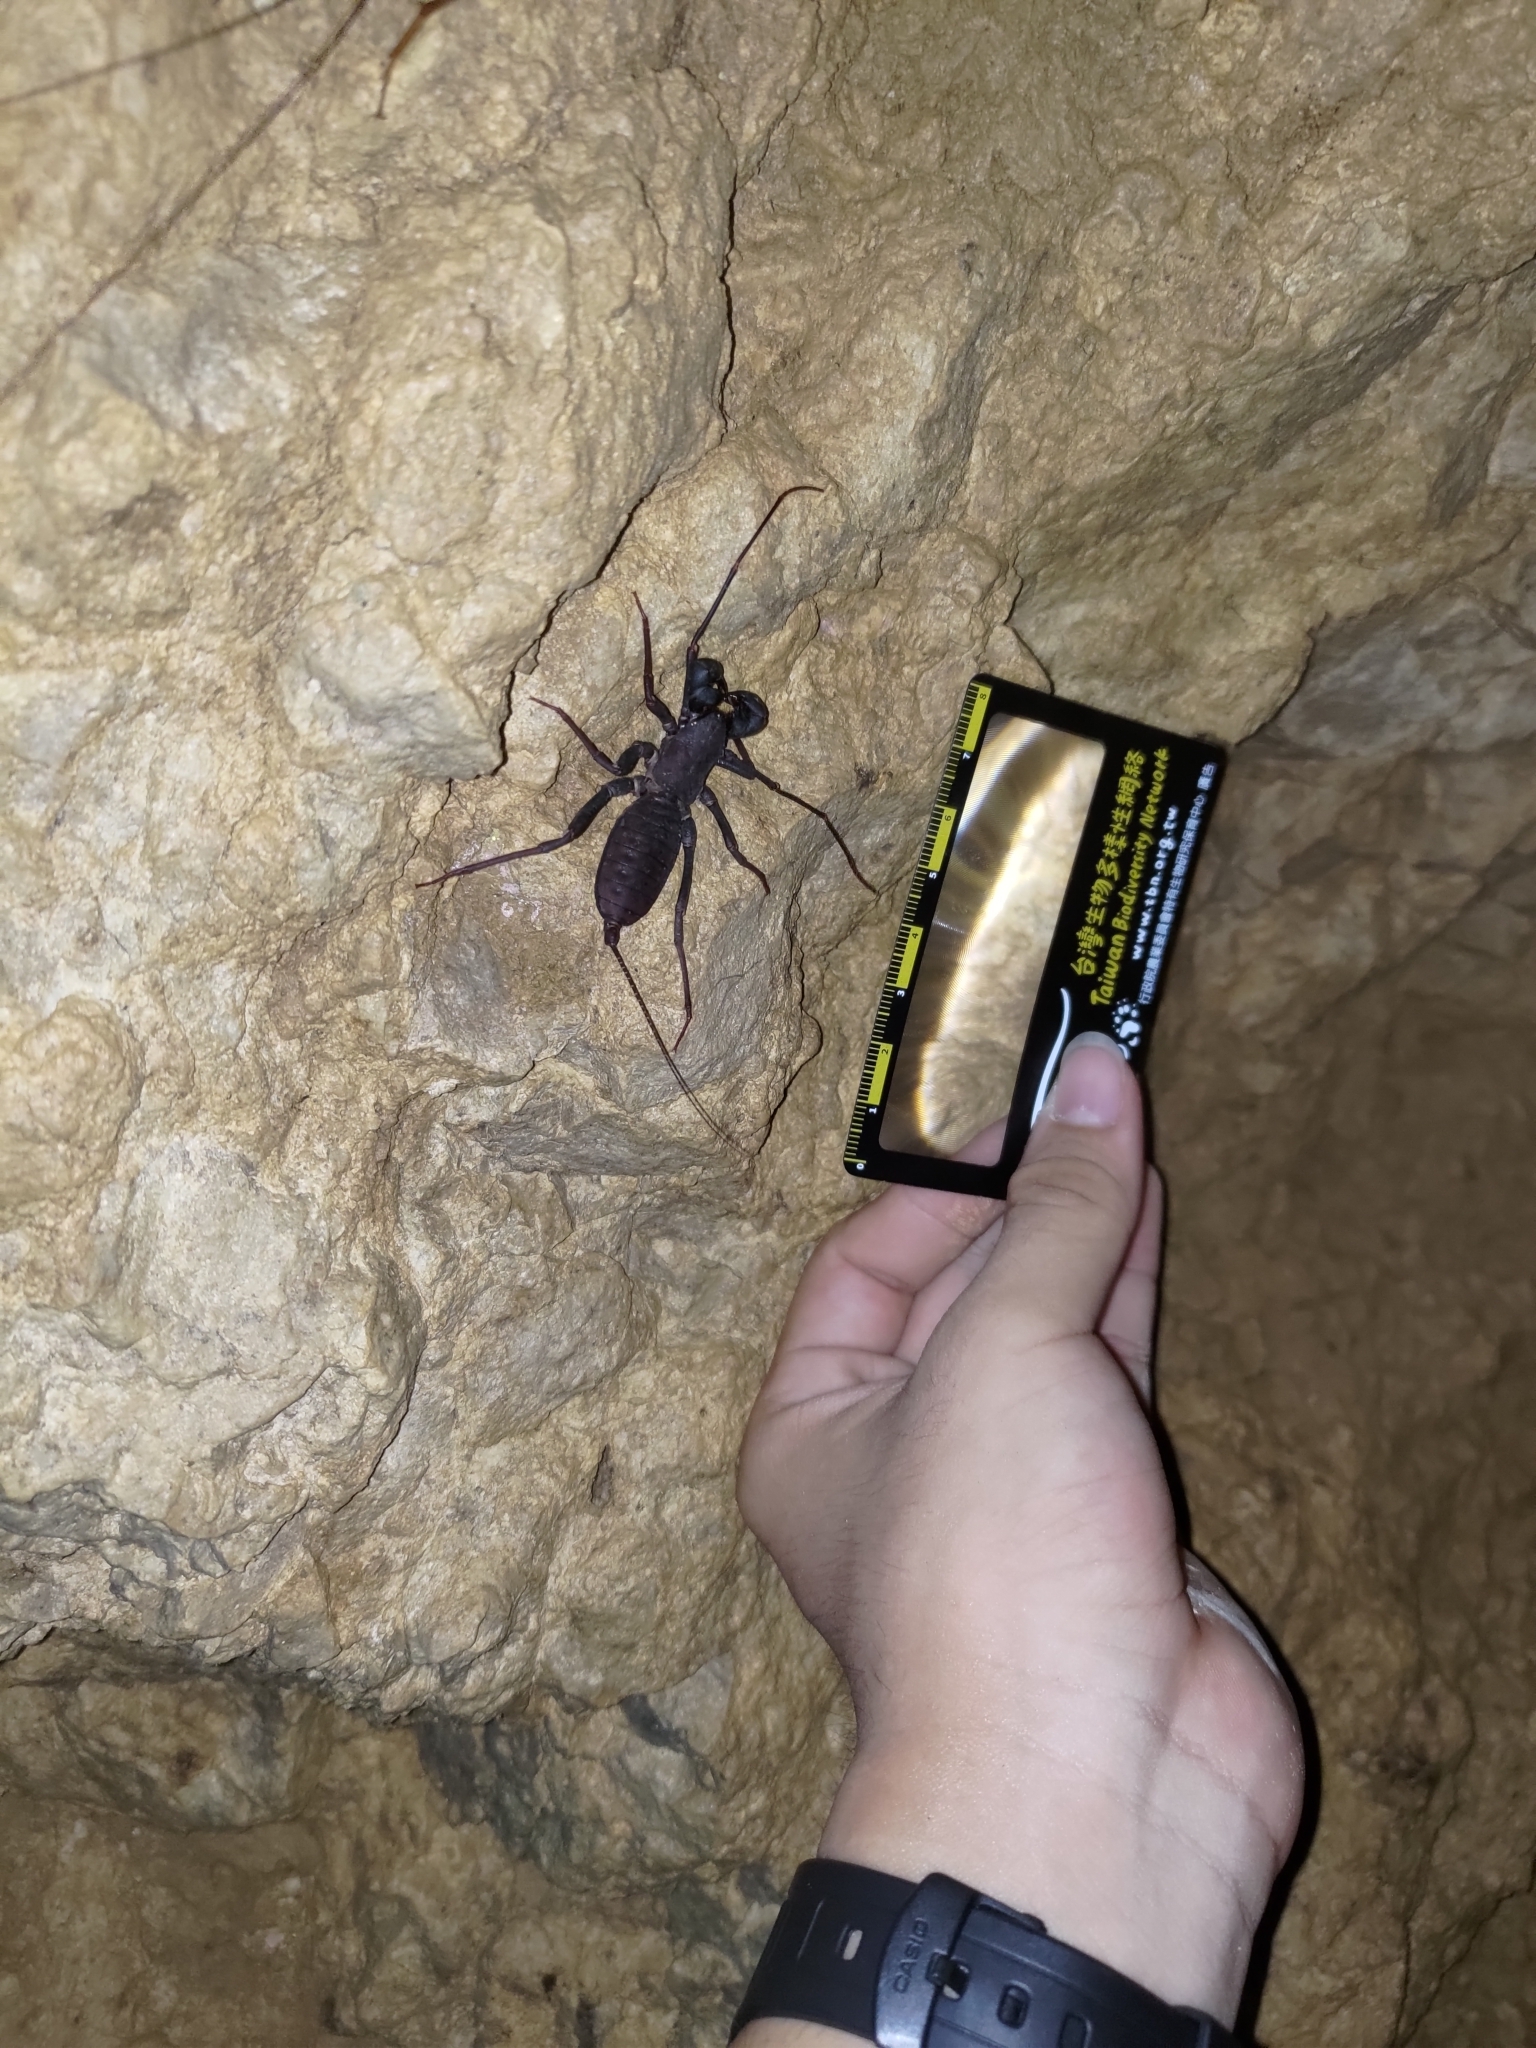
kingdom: Animalia
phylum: Arthropoda
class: Arachnida
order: Uropygi
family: Thelyphonidae
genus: Typopeltis
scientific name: Typopeltis crucifer
